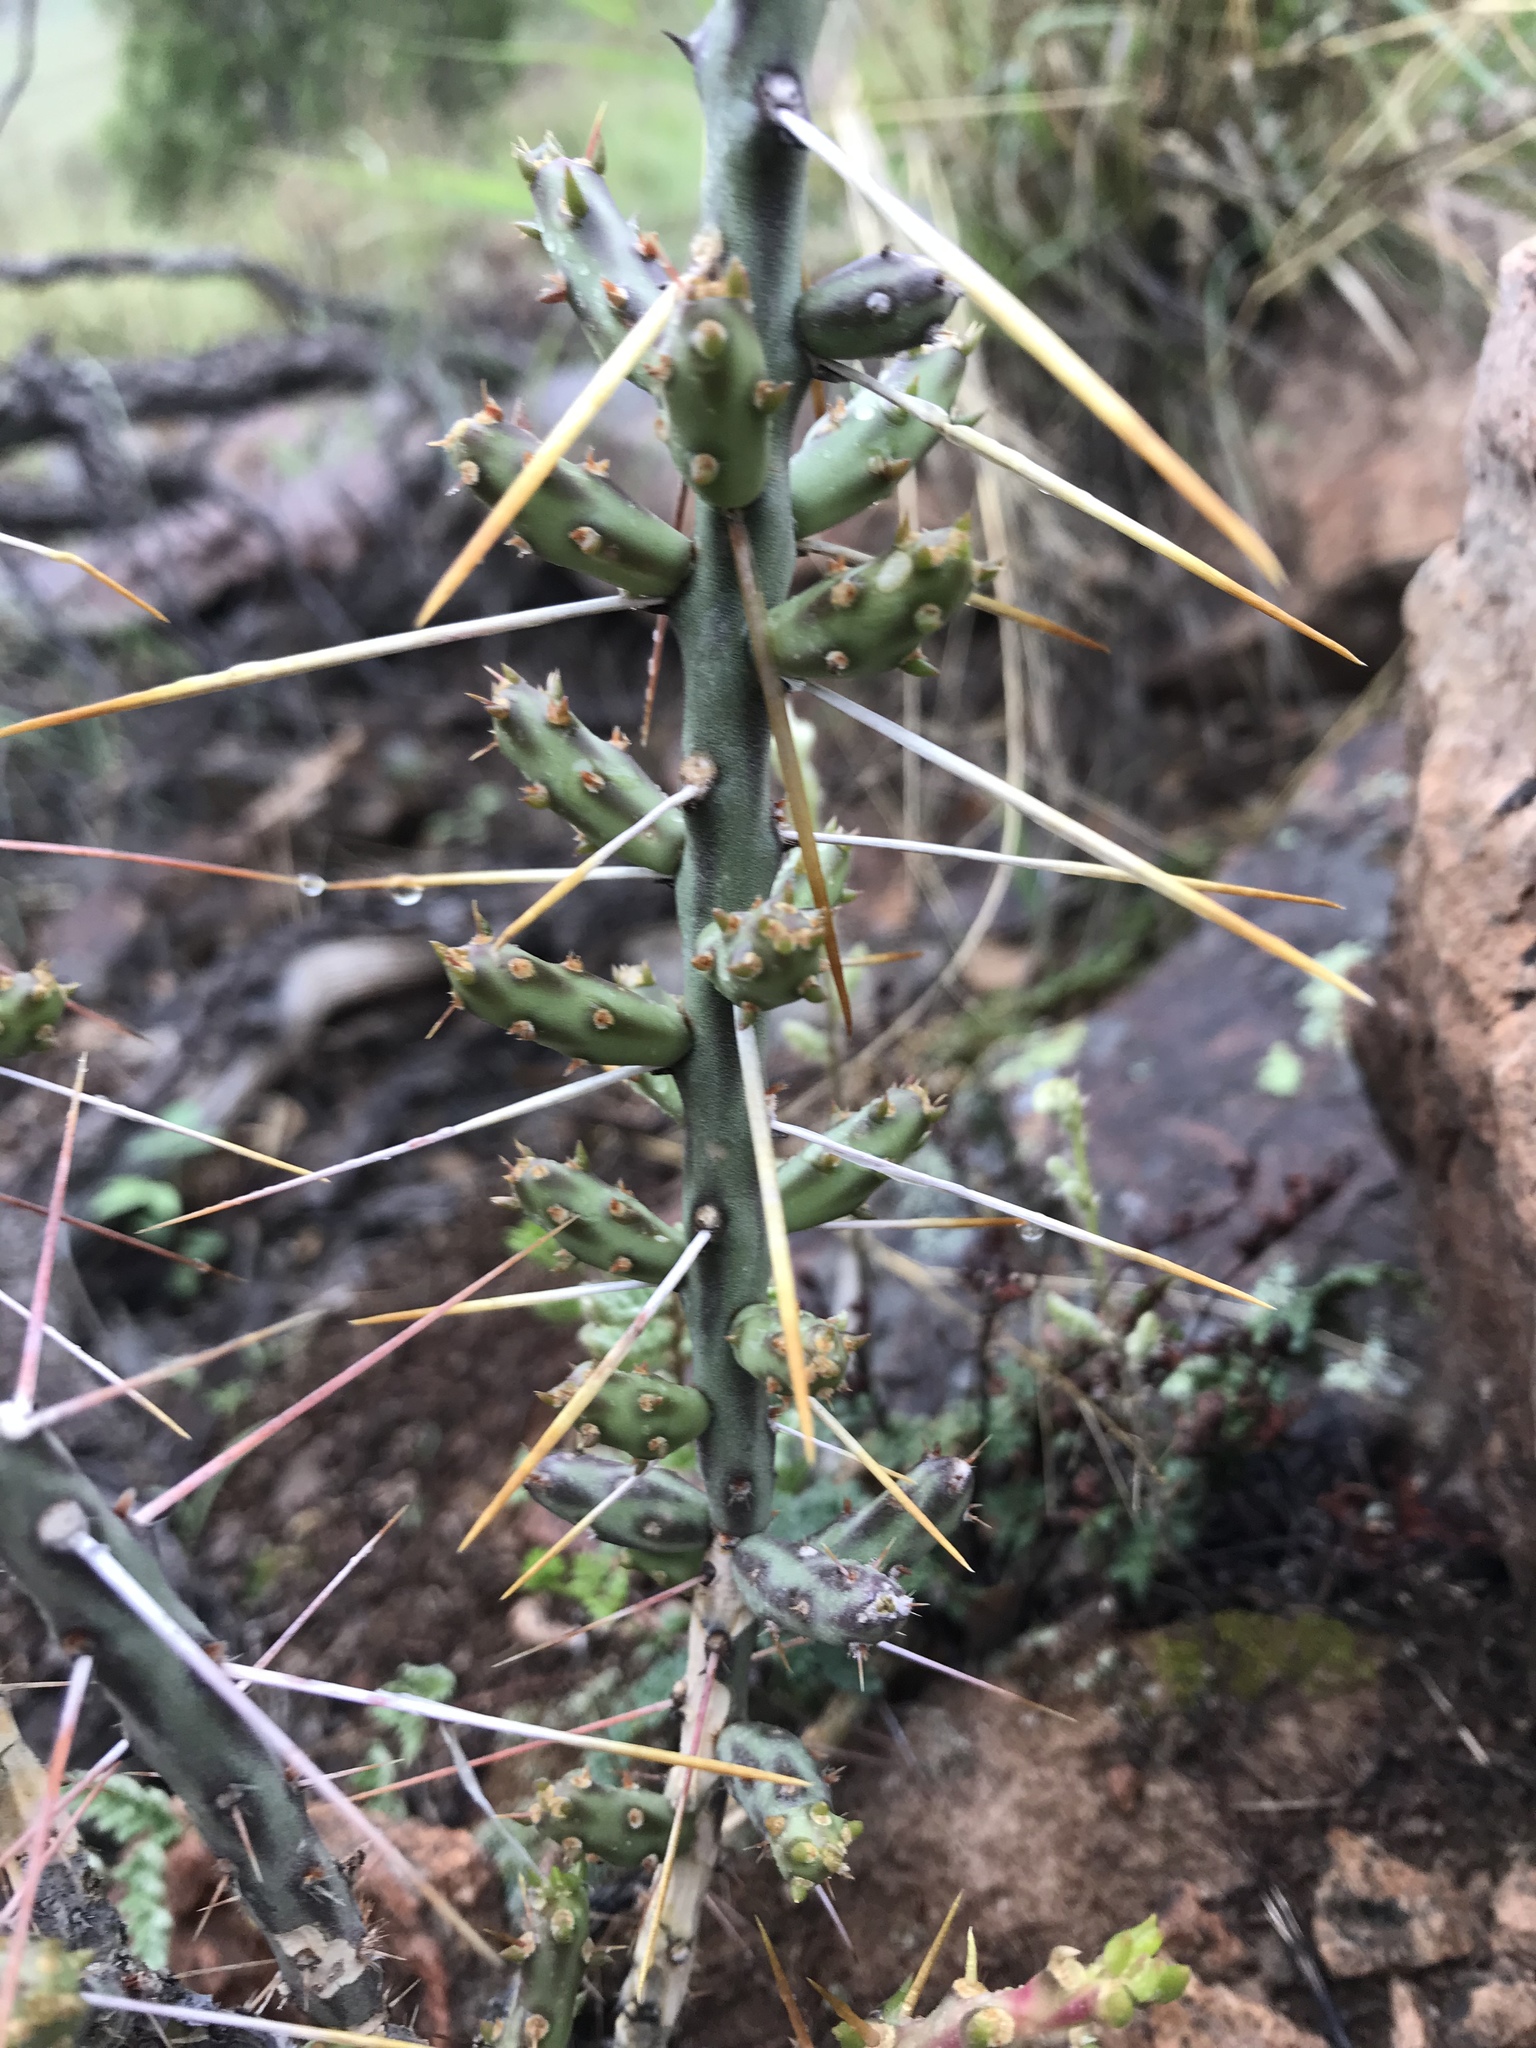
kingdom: Plantae
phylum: Tracheophyta
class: Magnoliopsida
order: Caryophyllales
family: Cactaceae
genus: Cylindropuntia
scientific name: Cylindropuntia leptocaulis
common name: Christmas cactus
